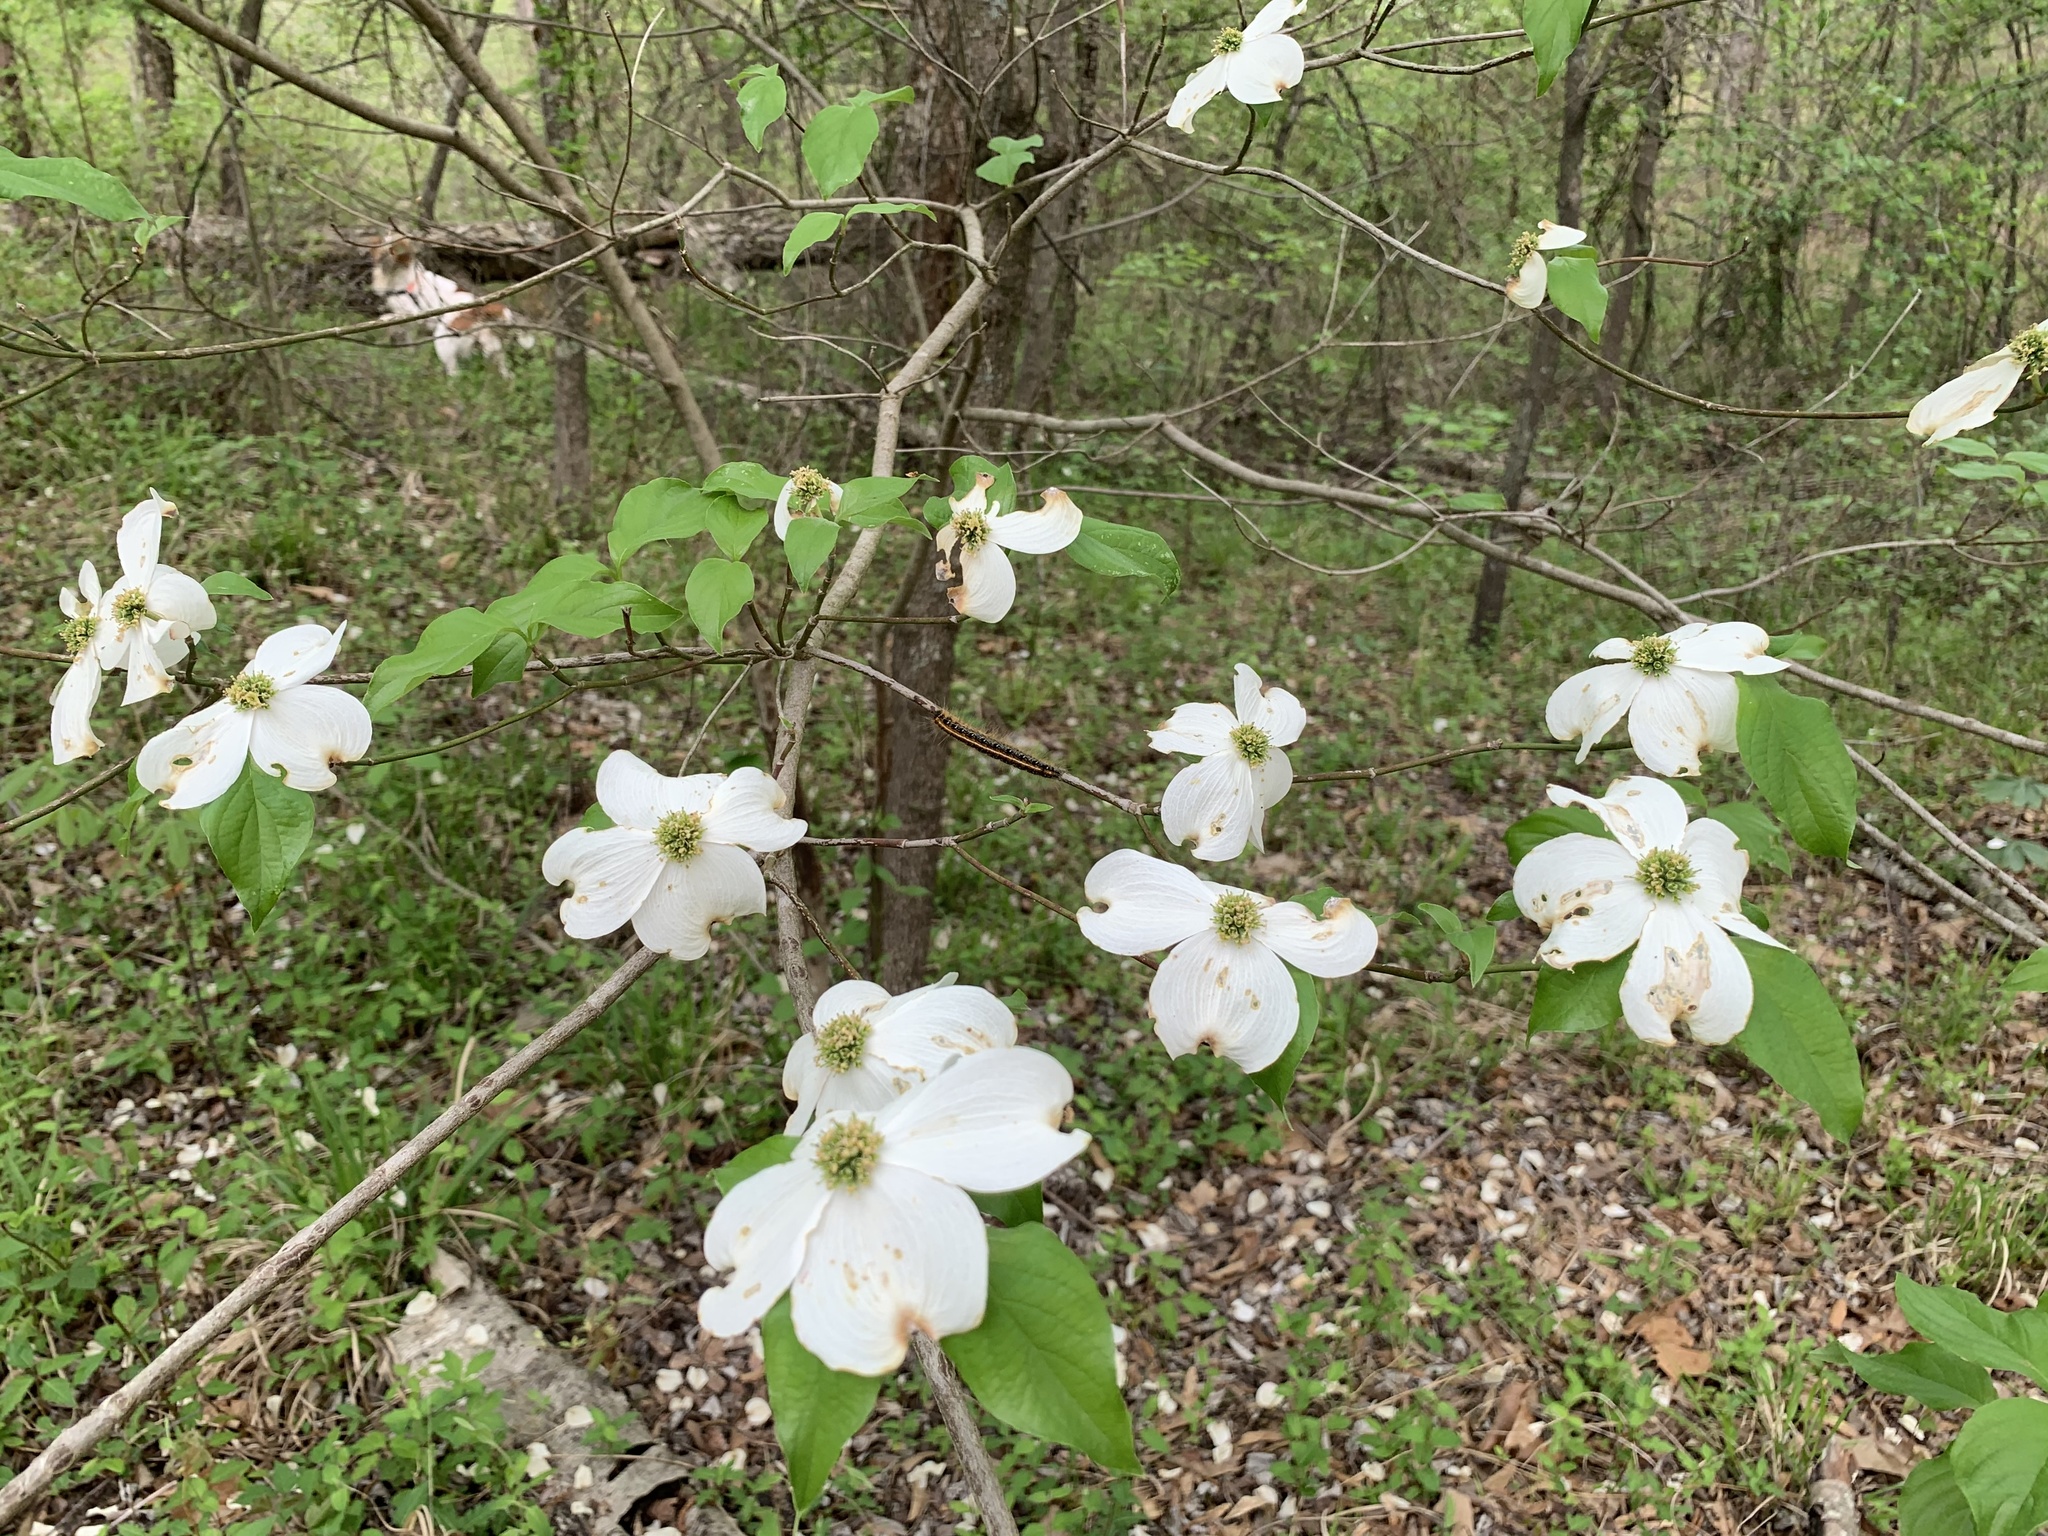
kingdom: Plantae
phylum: Tracheophyta
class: Magnoliopsida
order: Cornales
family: Cornaceae
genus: Cornus
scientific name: Cornus florida
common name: Flowering dogwood
